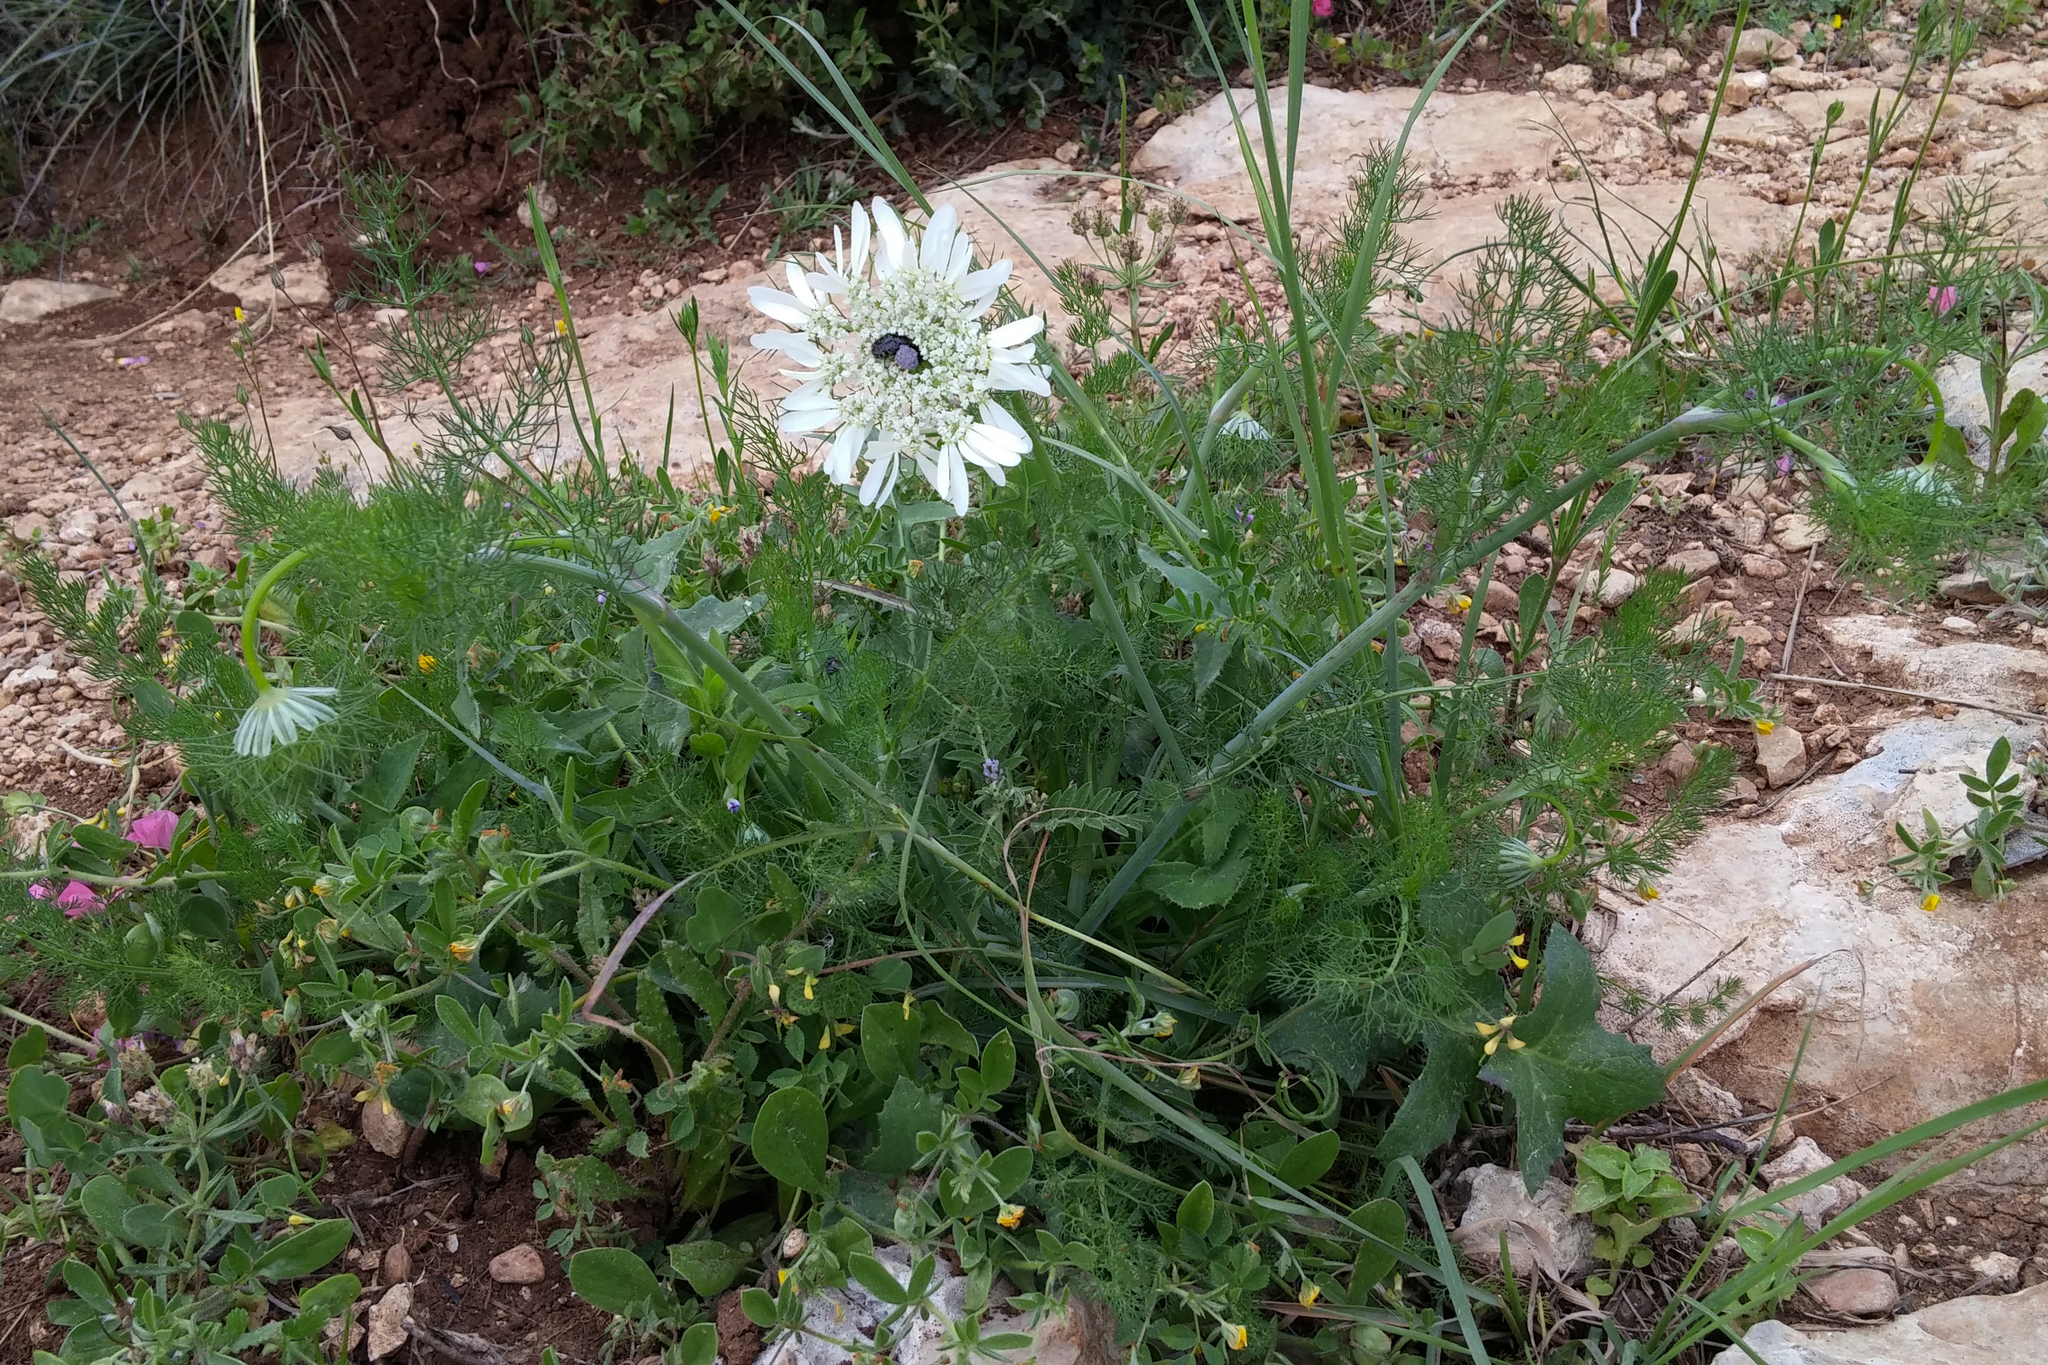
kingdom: Plantae
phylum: Tracheophyta
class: Magnoliopsida
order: Apiales
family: Apiaceae
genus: Artedia
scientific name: Artedia squamata
